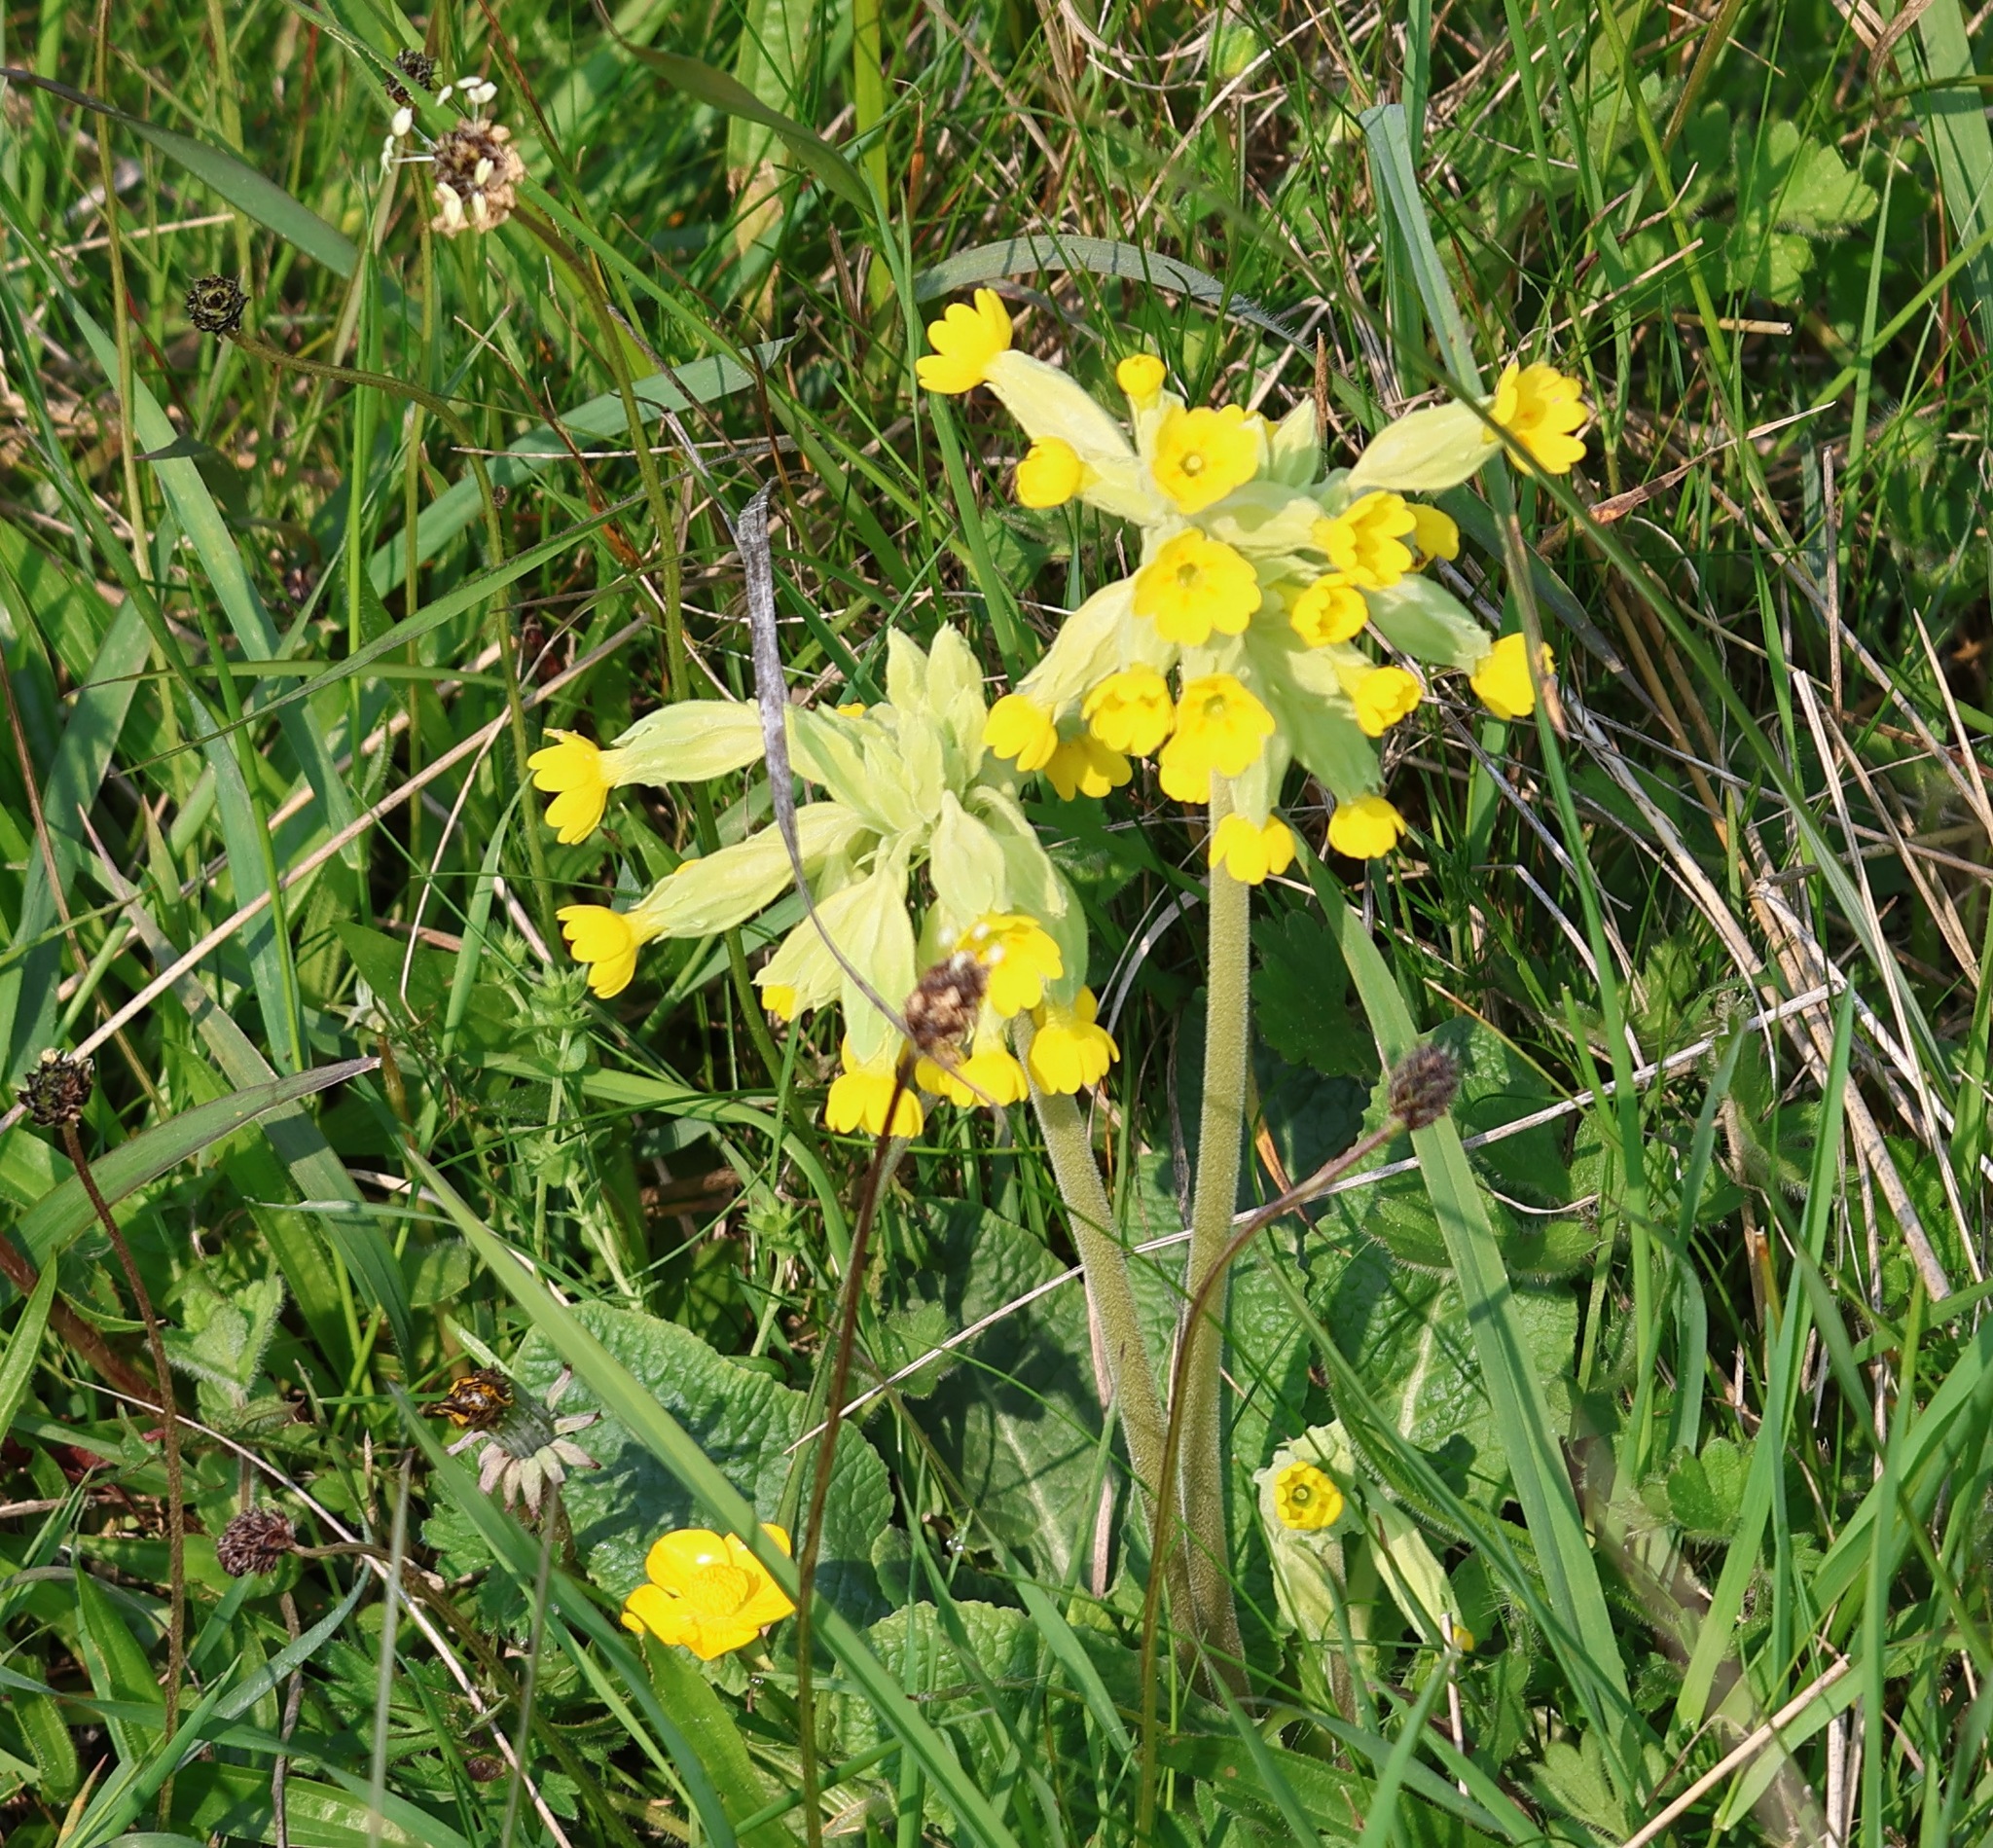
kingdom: Plantae
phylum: Tracheophyta
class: Magnoliopsida
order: Ericales
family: Primulaceae
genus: Primula
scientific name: Primula veris
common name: Cowslip
